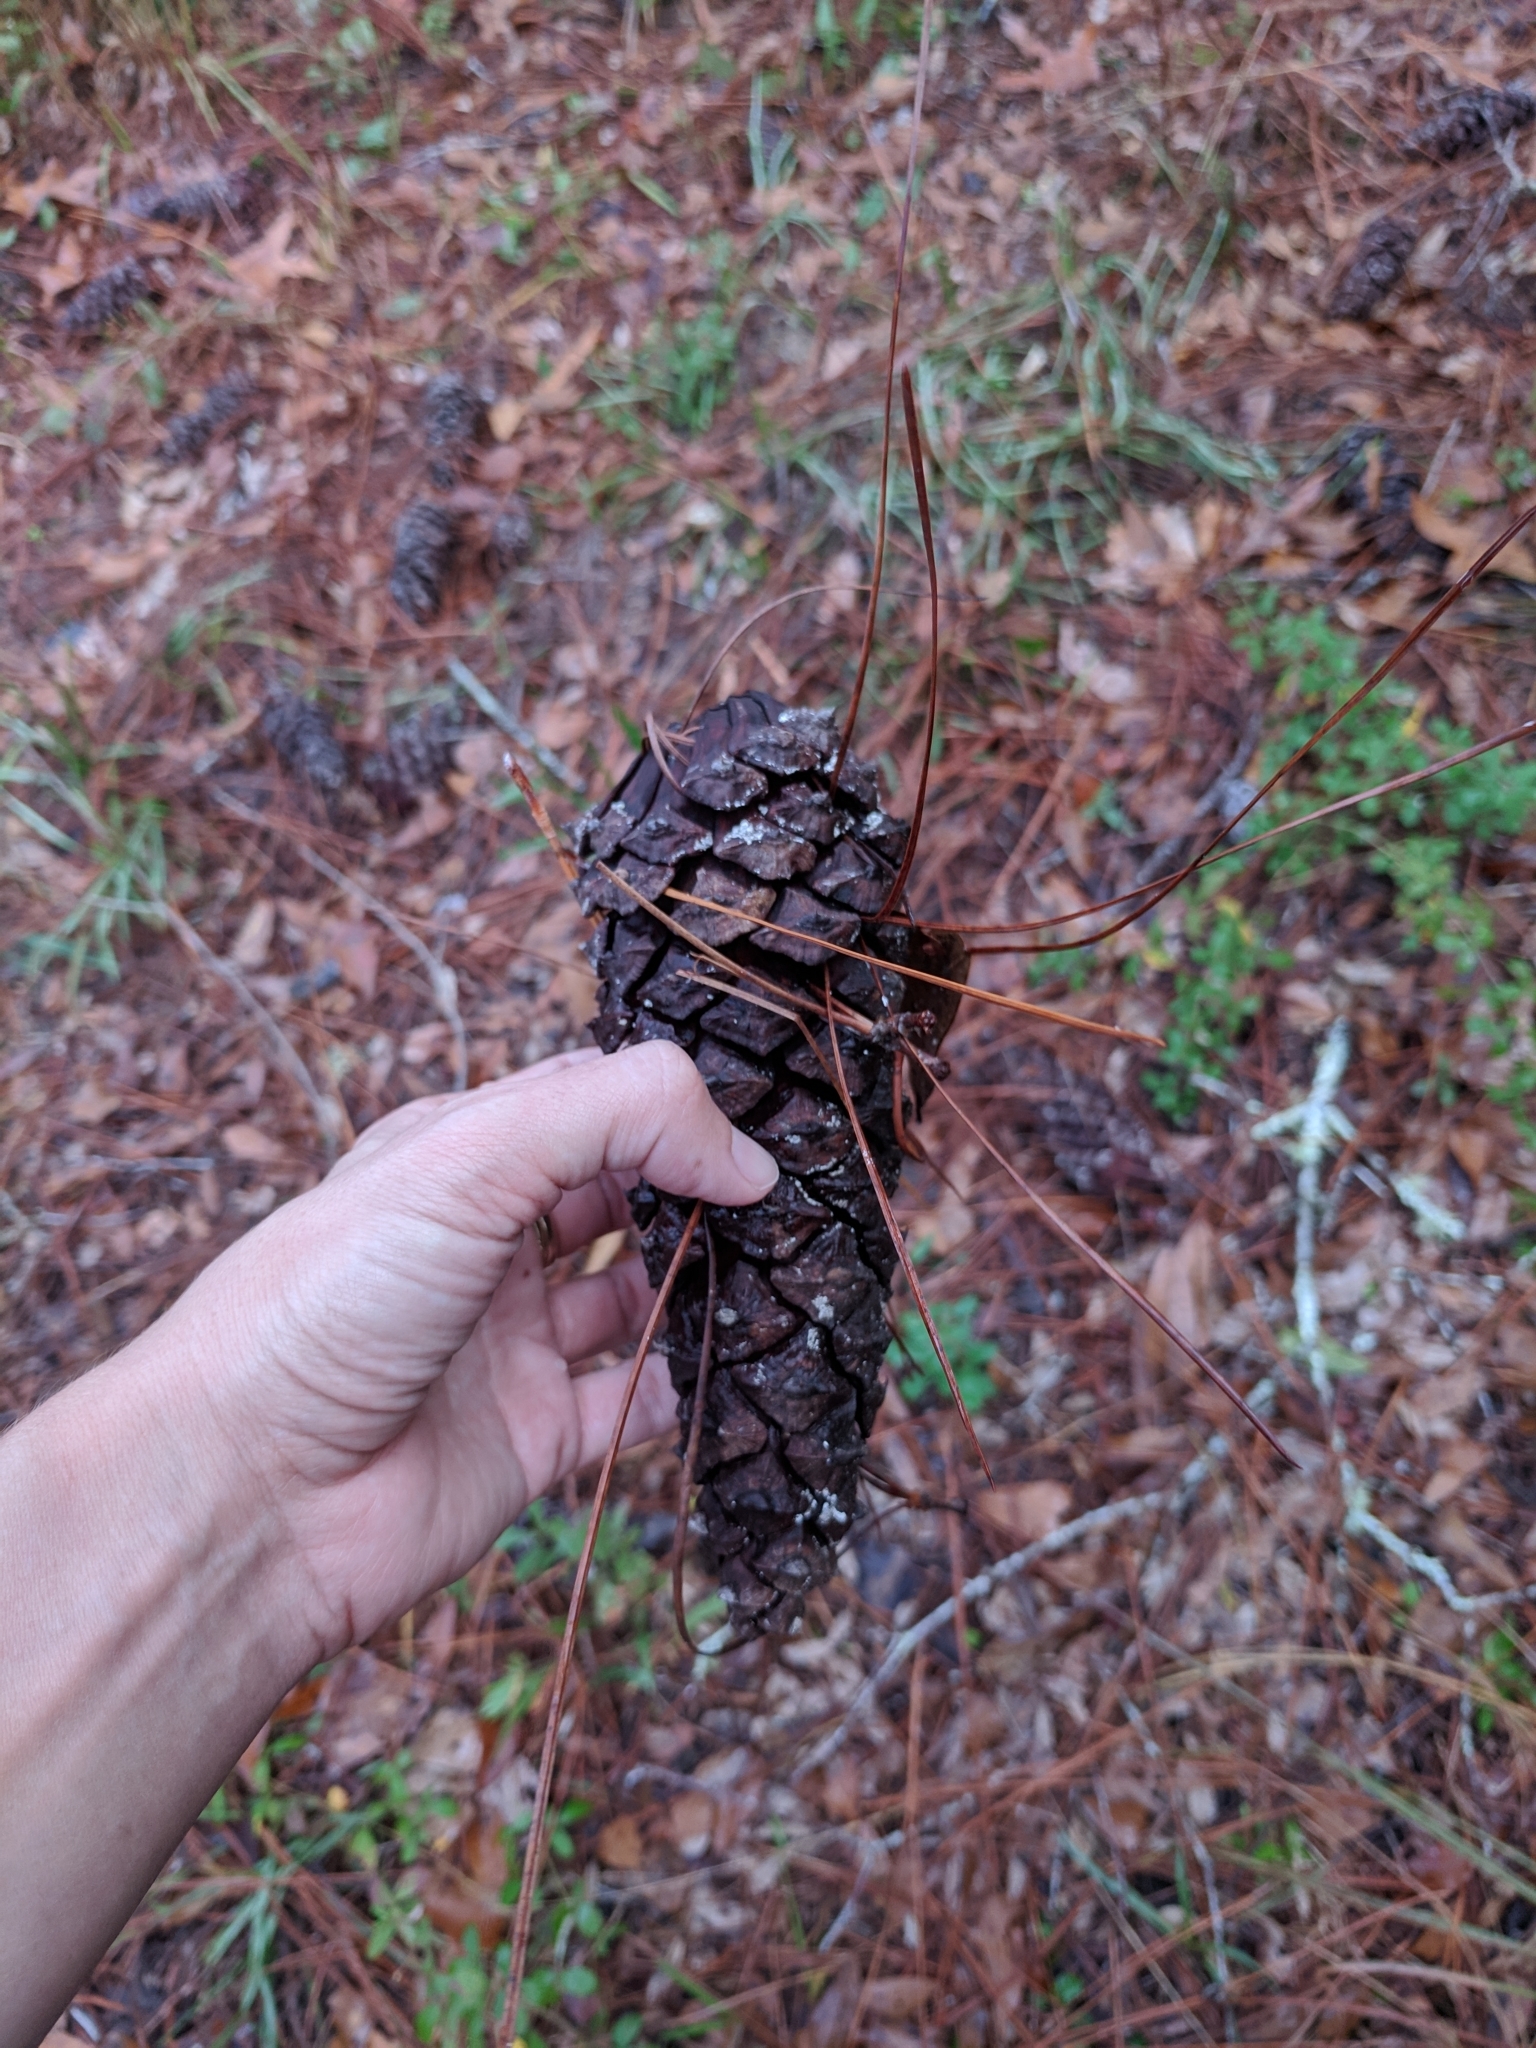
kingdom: Plantae
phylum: Tracheophyta
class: Pinopsida
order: Pinales
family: Pinaceae
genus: Pinus
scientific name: Pinus palustris
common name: Longleaf pine
